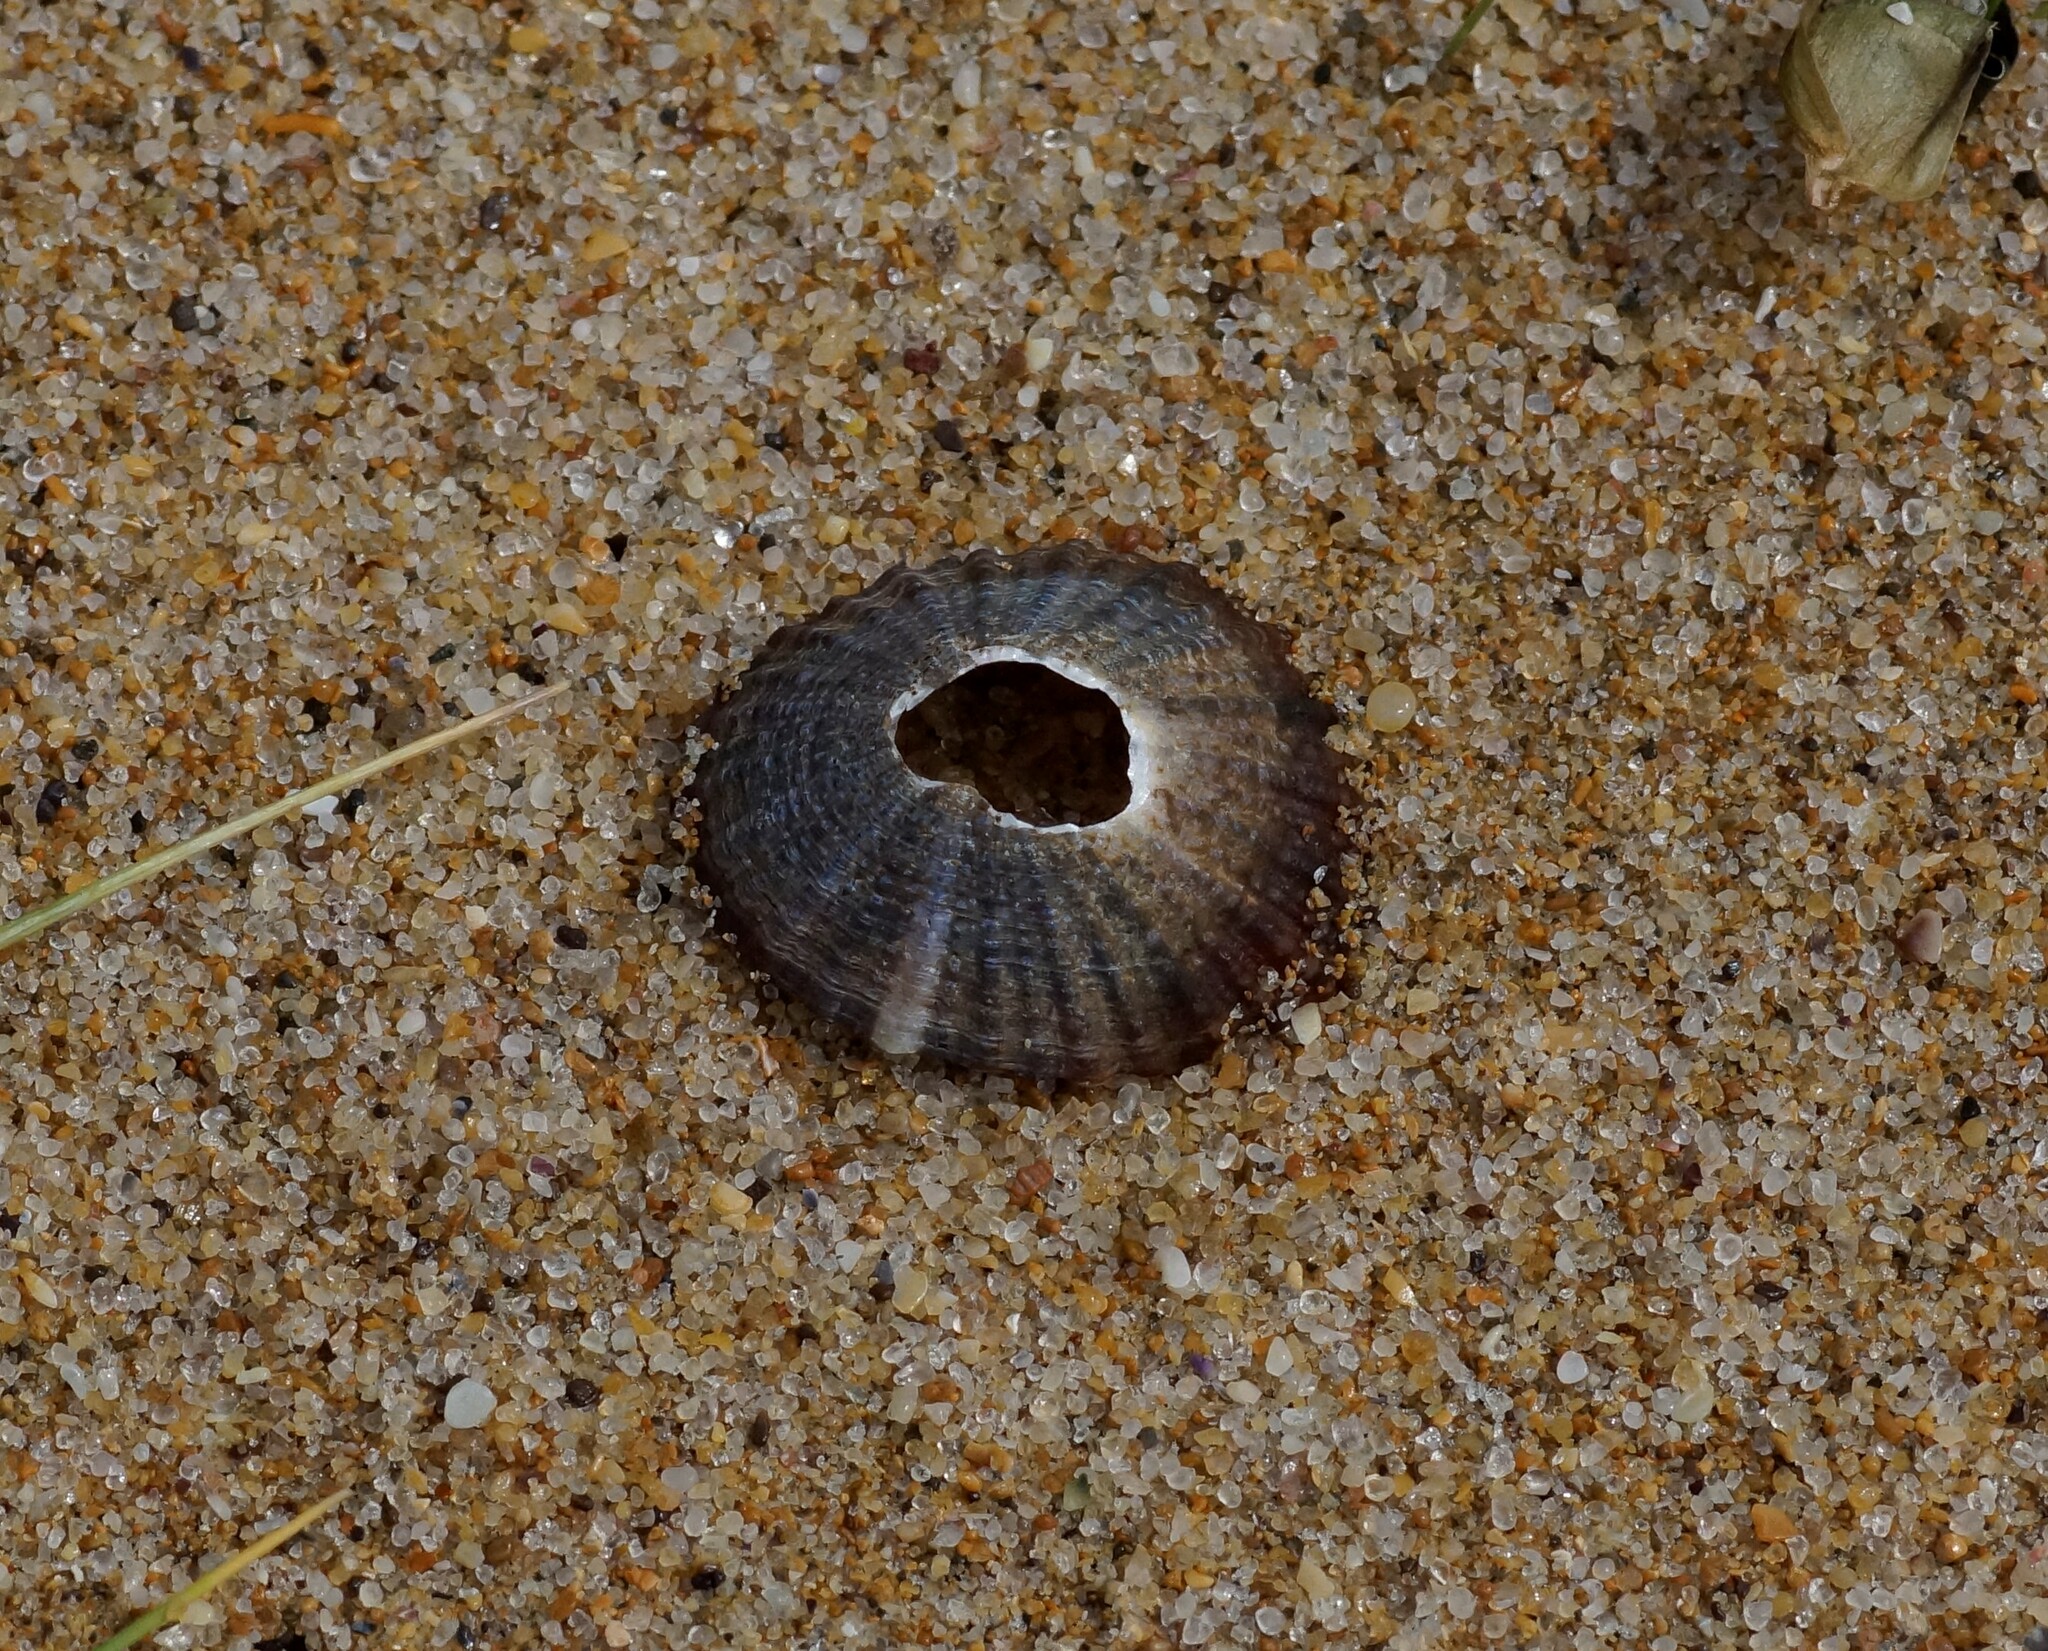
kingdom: Animalia
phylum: Mollusca
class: Gastropoda
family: Nacellidae
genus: Cellana
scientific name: Cellana tramoserica
